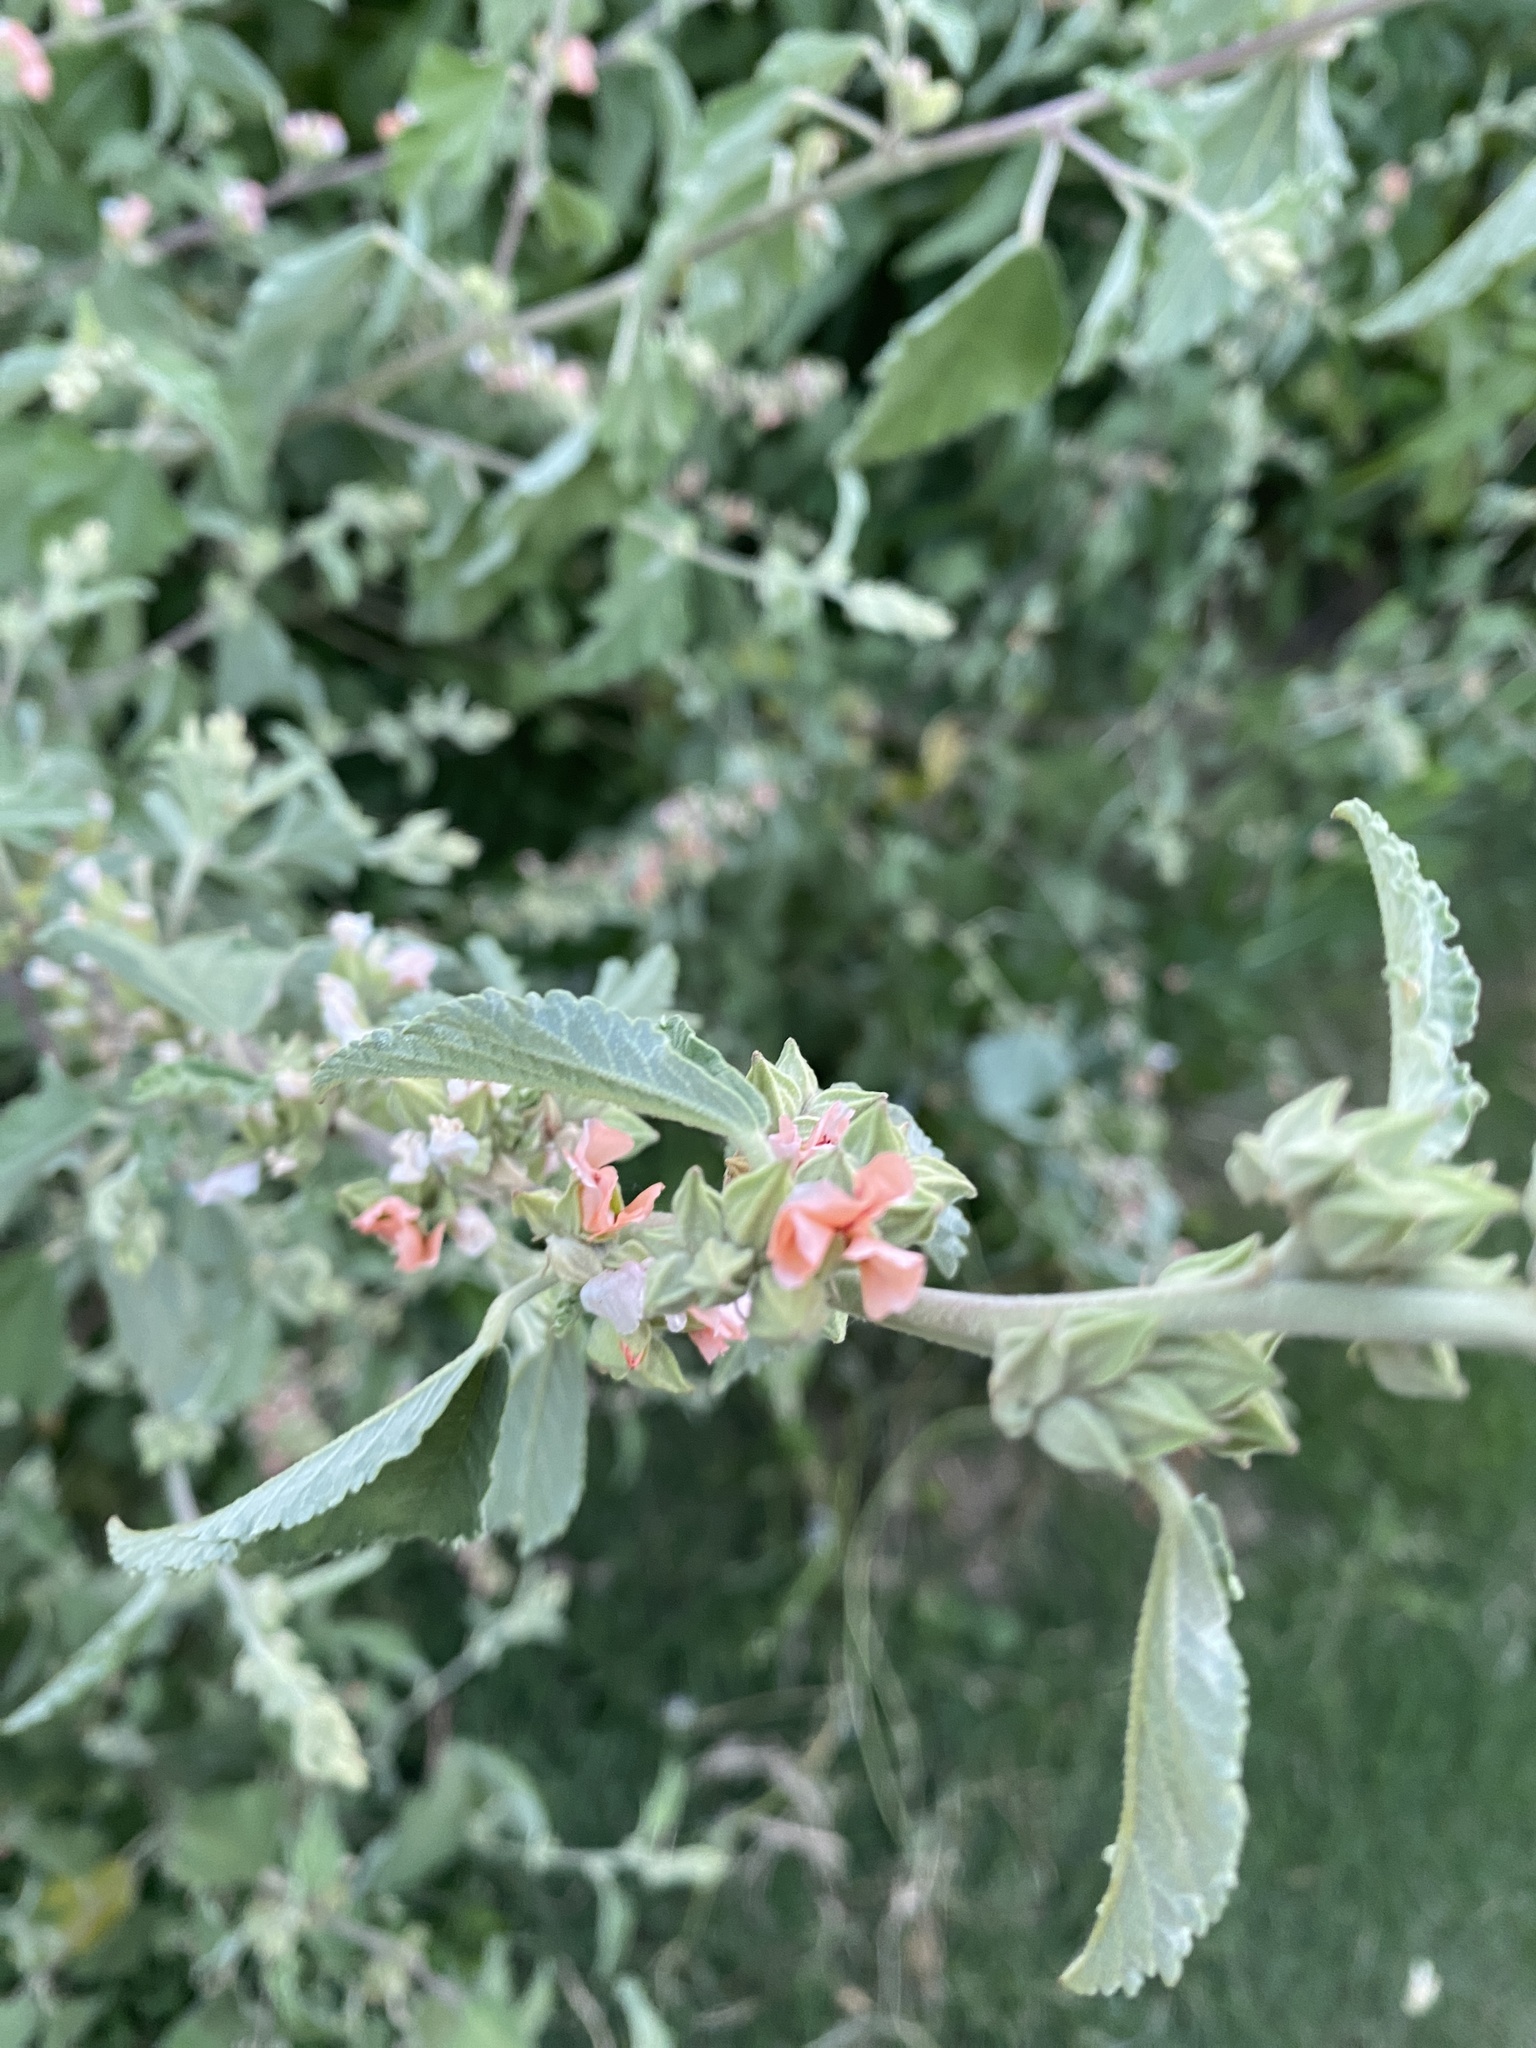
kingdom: Plantae
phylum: Tracheophyta
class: Magnoliopsida
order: Malvales
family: Malvaceae
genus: Sphaeralcea
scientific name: Sphaeralcea bonariensis
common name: Latin globemallow
